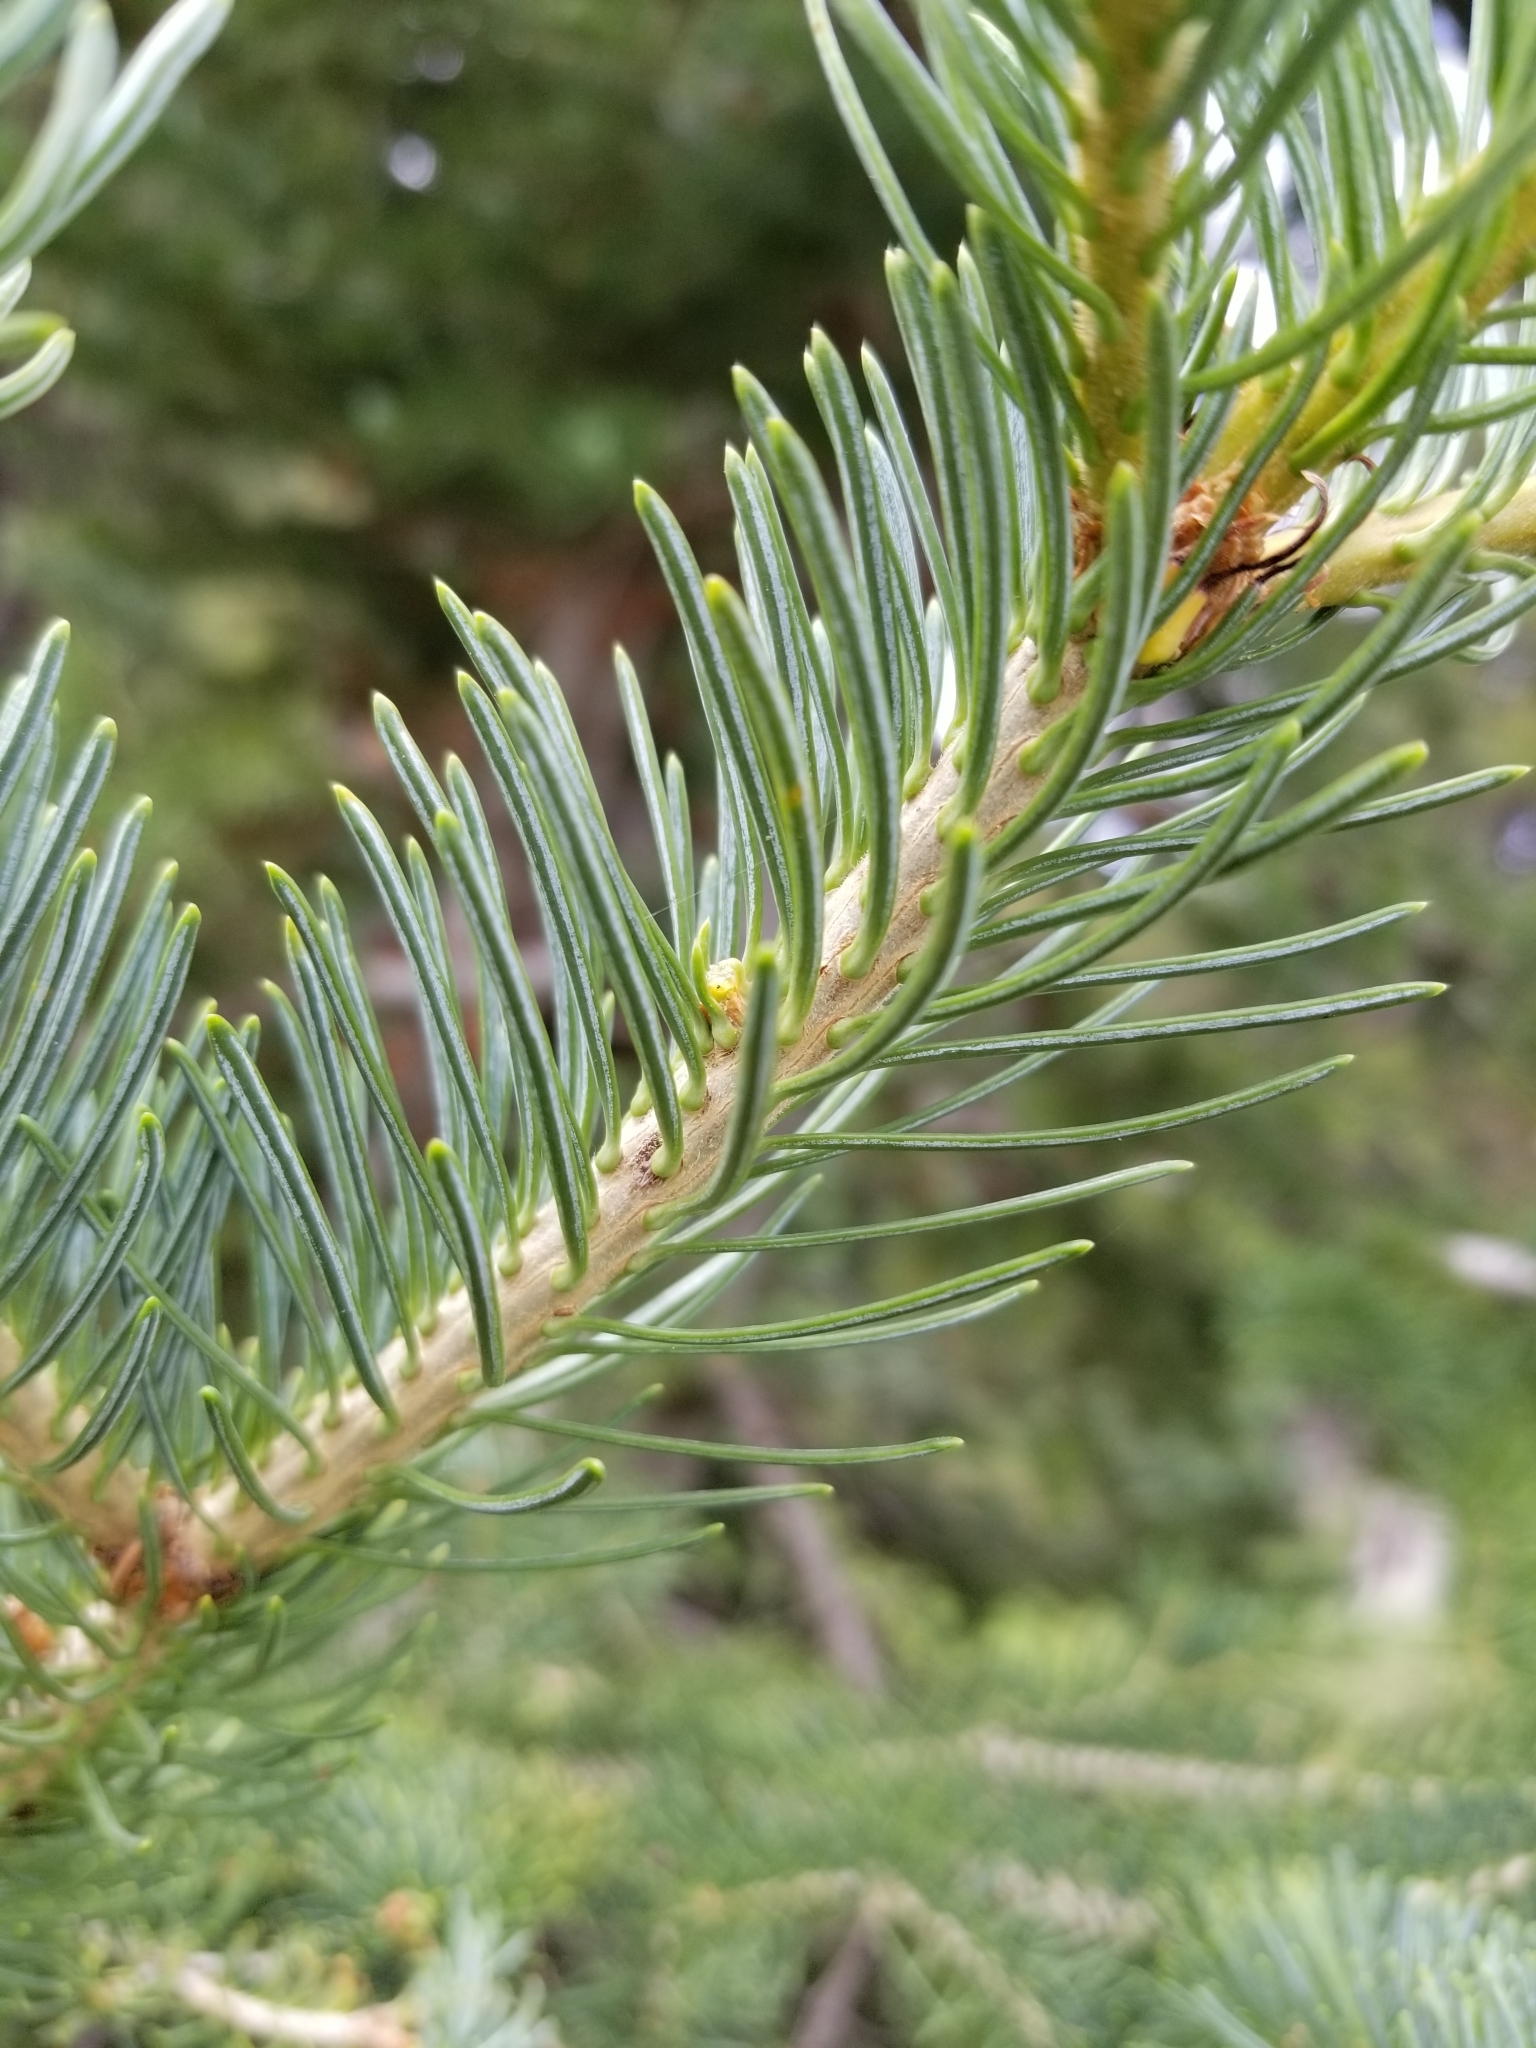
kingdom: Plantae
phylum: Tracheophyta
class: Pinopsida
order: Pinales
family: Pinaceae
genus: Abies
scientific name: Abies lasiocarpa
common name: Subalpine fir
